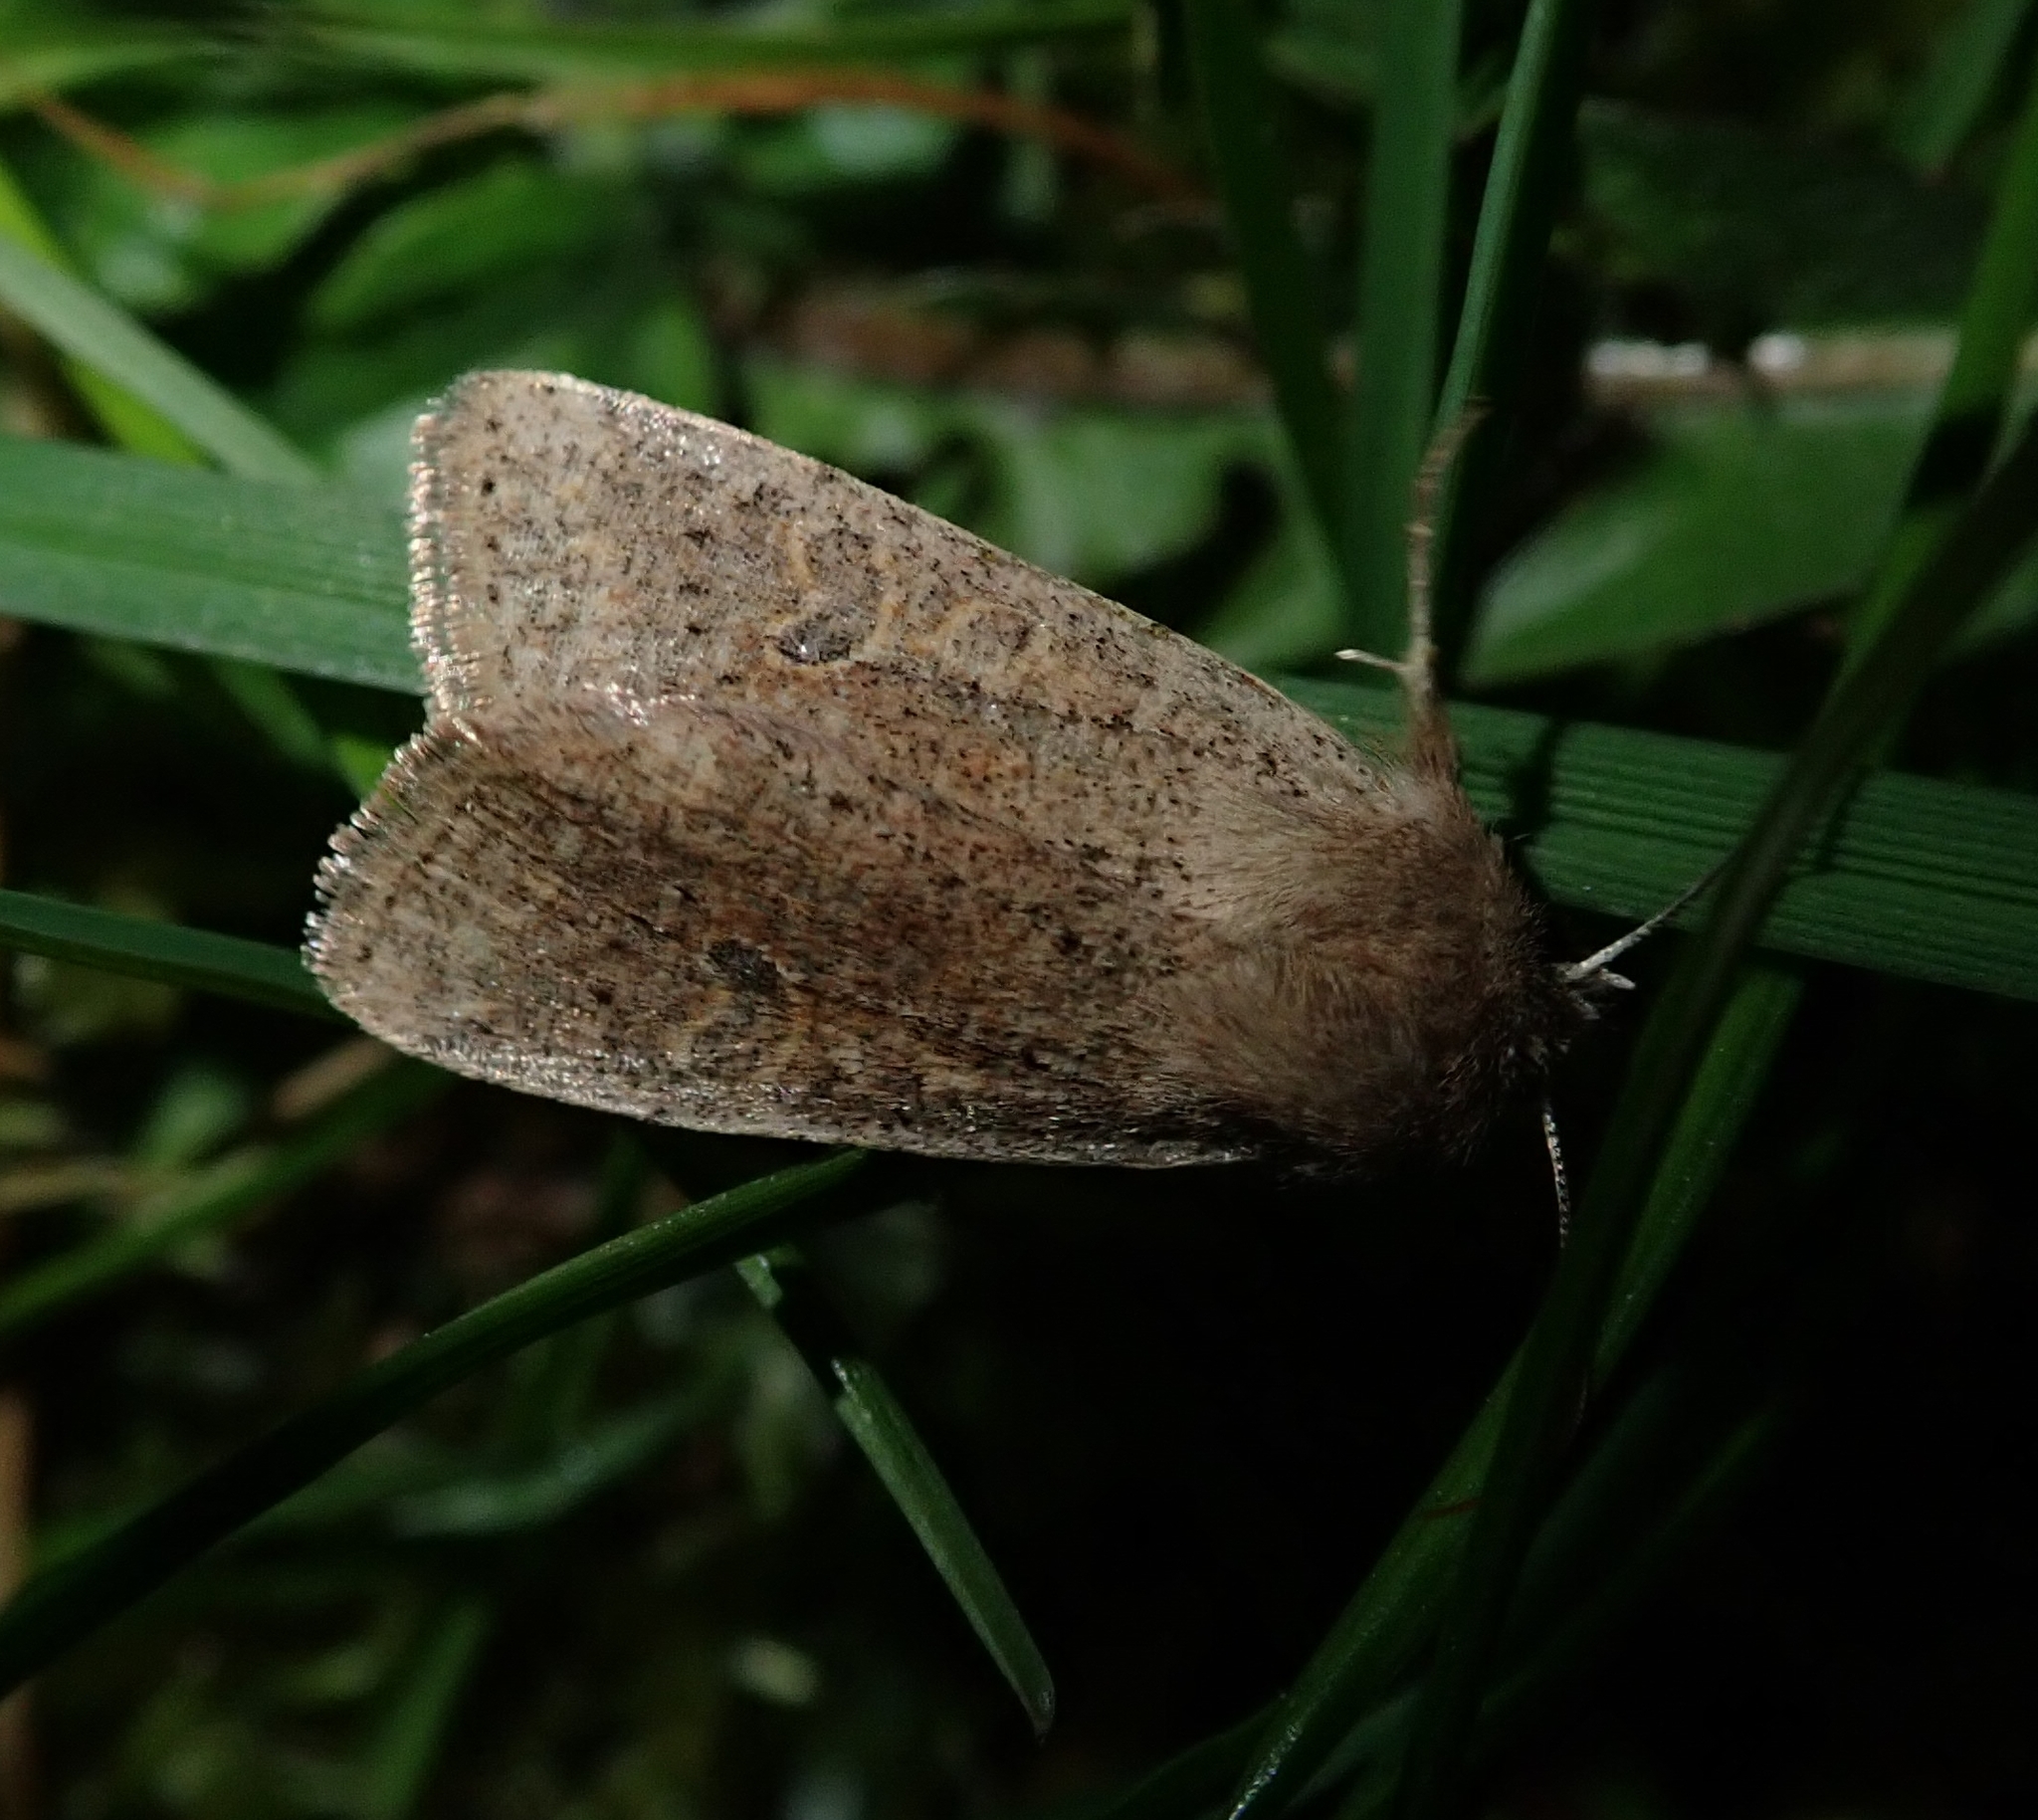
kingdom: Animalia
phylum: Arthropoda
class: Insecta
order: Lepidoptera
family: Noctuidae
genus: Orthosia
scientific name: Orthosia cruda
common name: Small quaker
